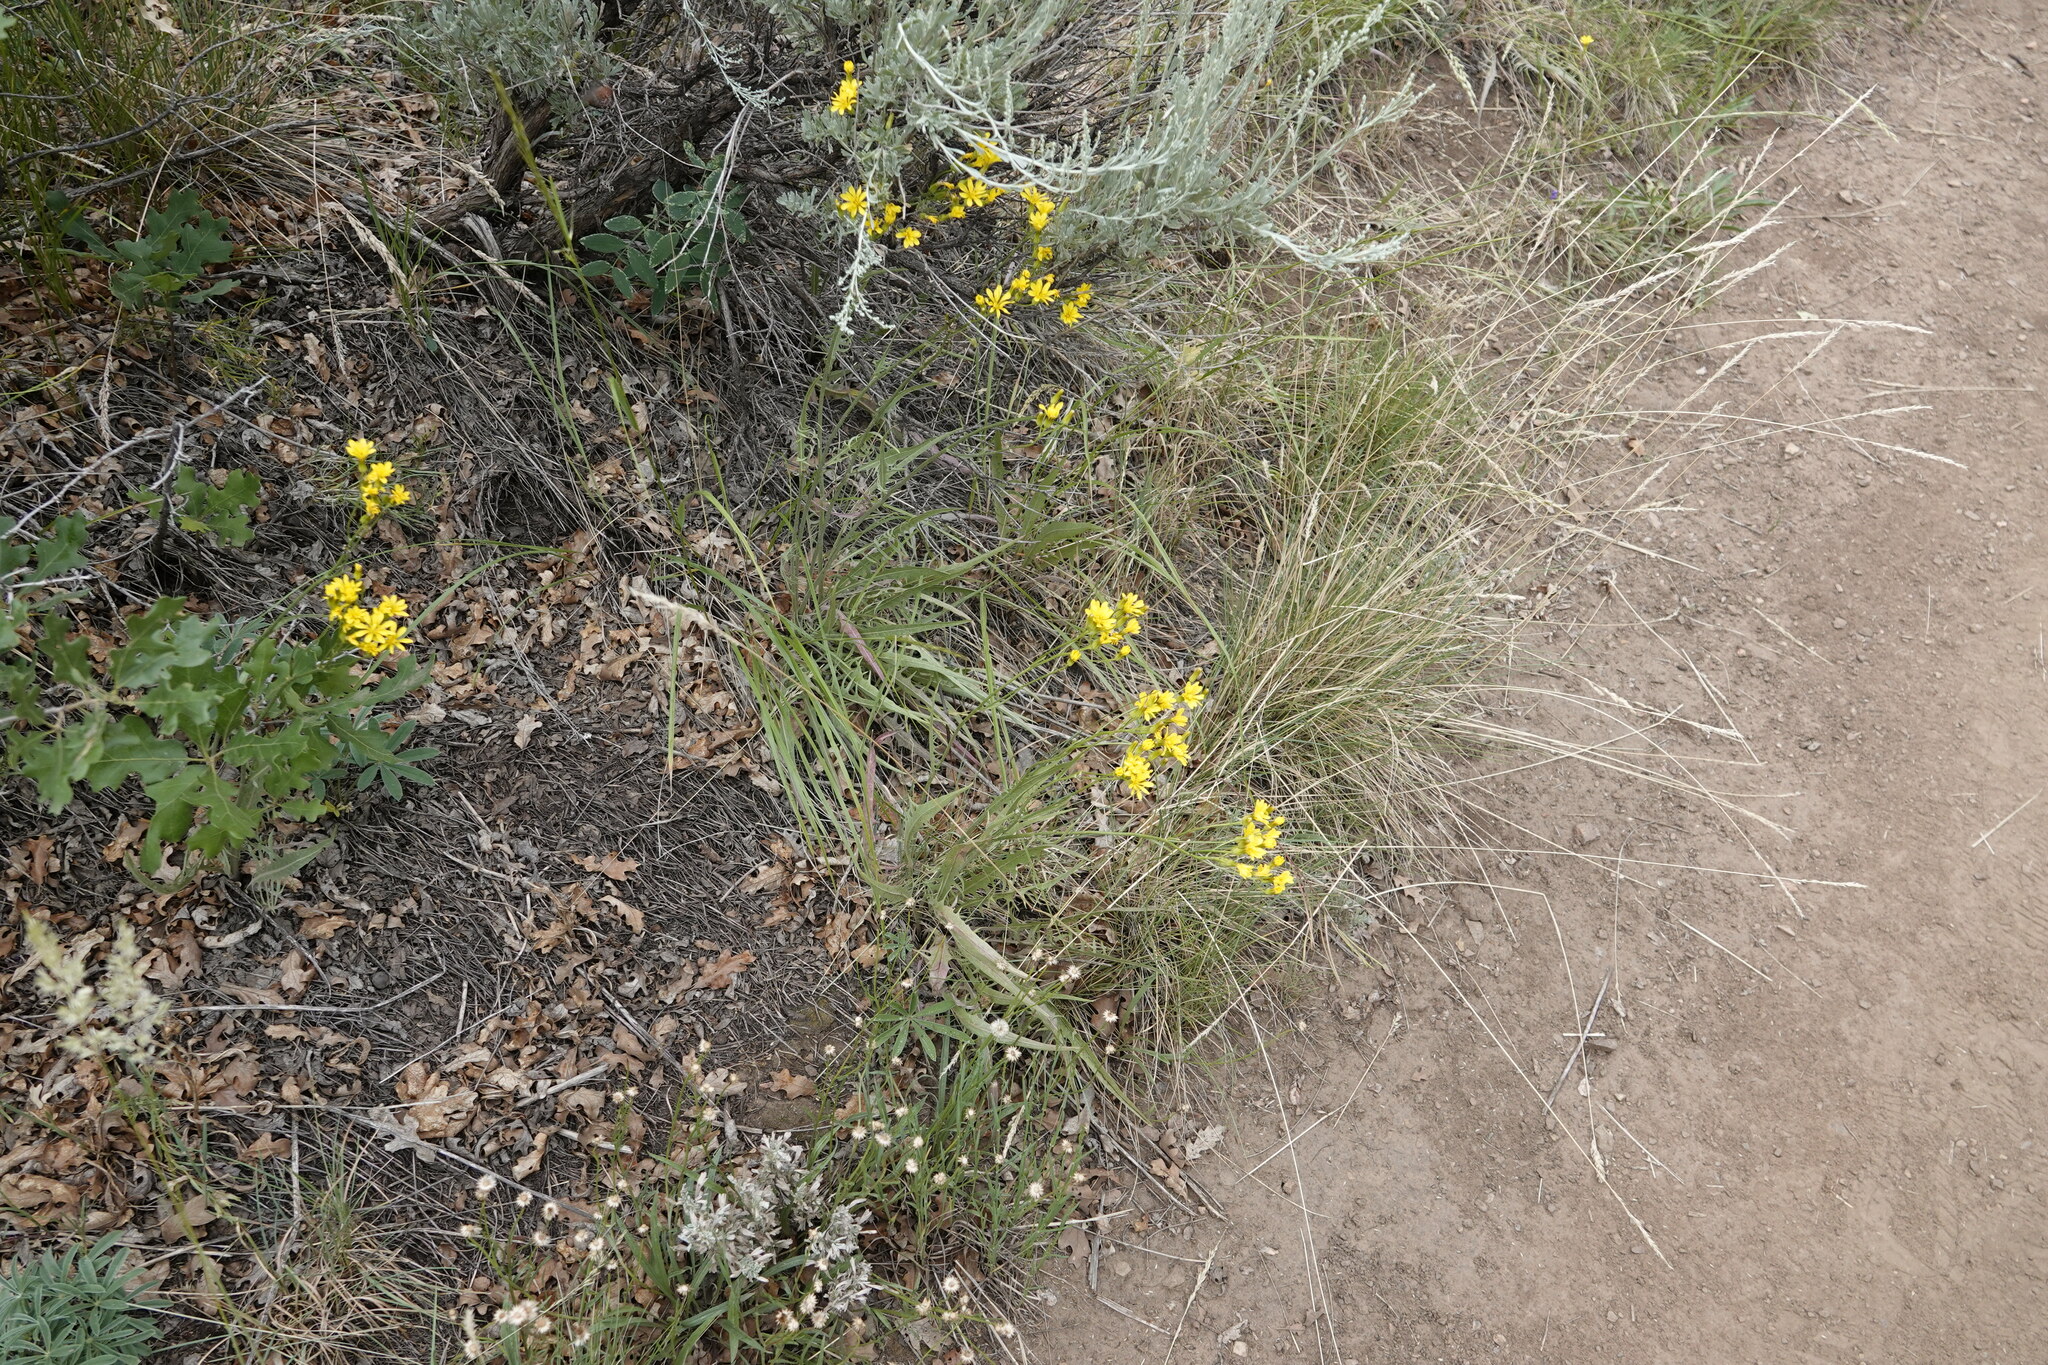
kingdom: Plantae
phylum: Tracheophyta
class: Magnoliopsida
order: Asterales
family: Asteraceae
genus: Crepis
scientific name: Crepis acuminata
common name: Longleaf hawk's-beard
